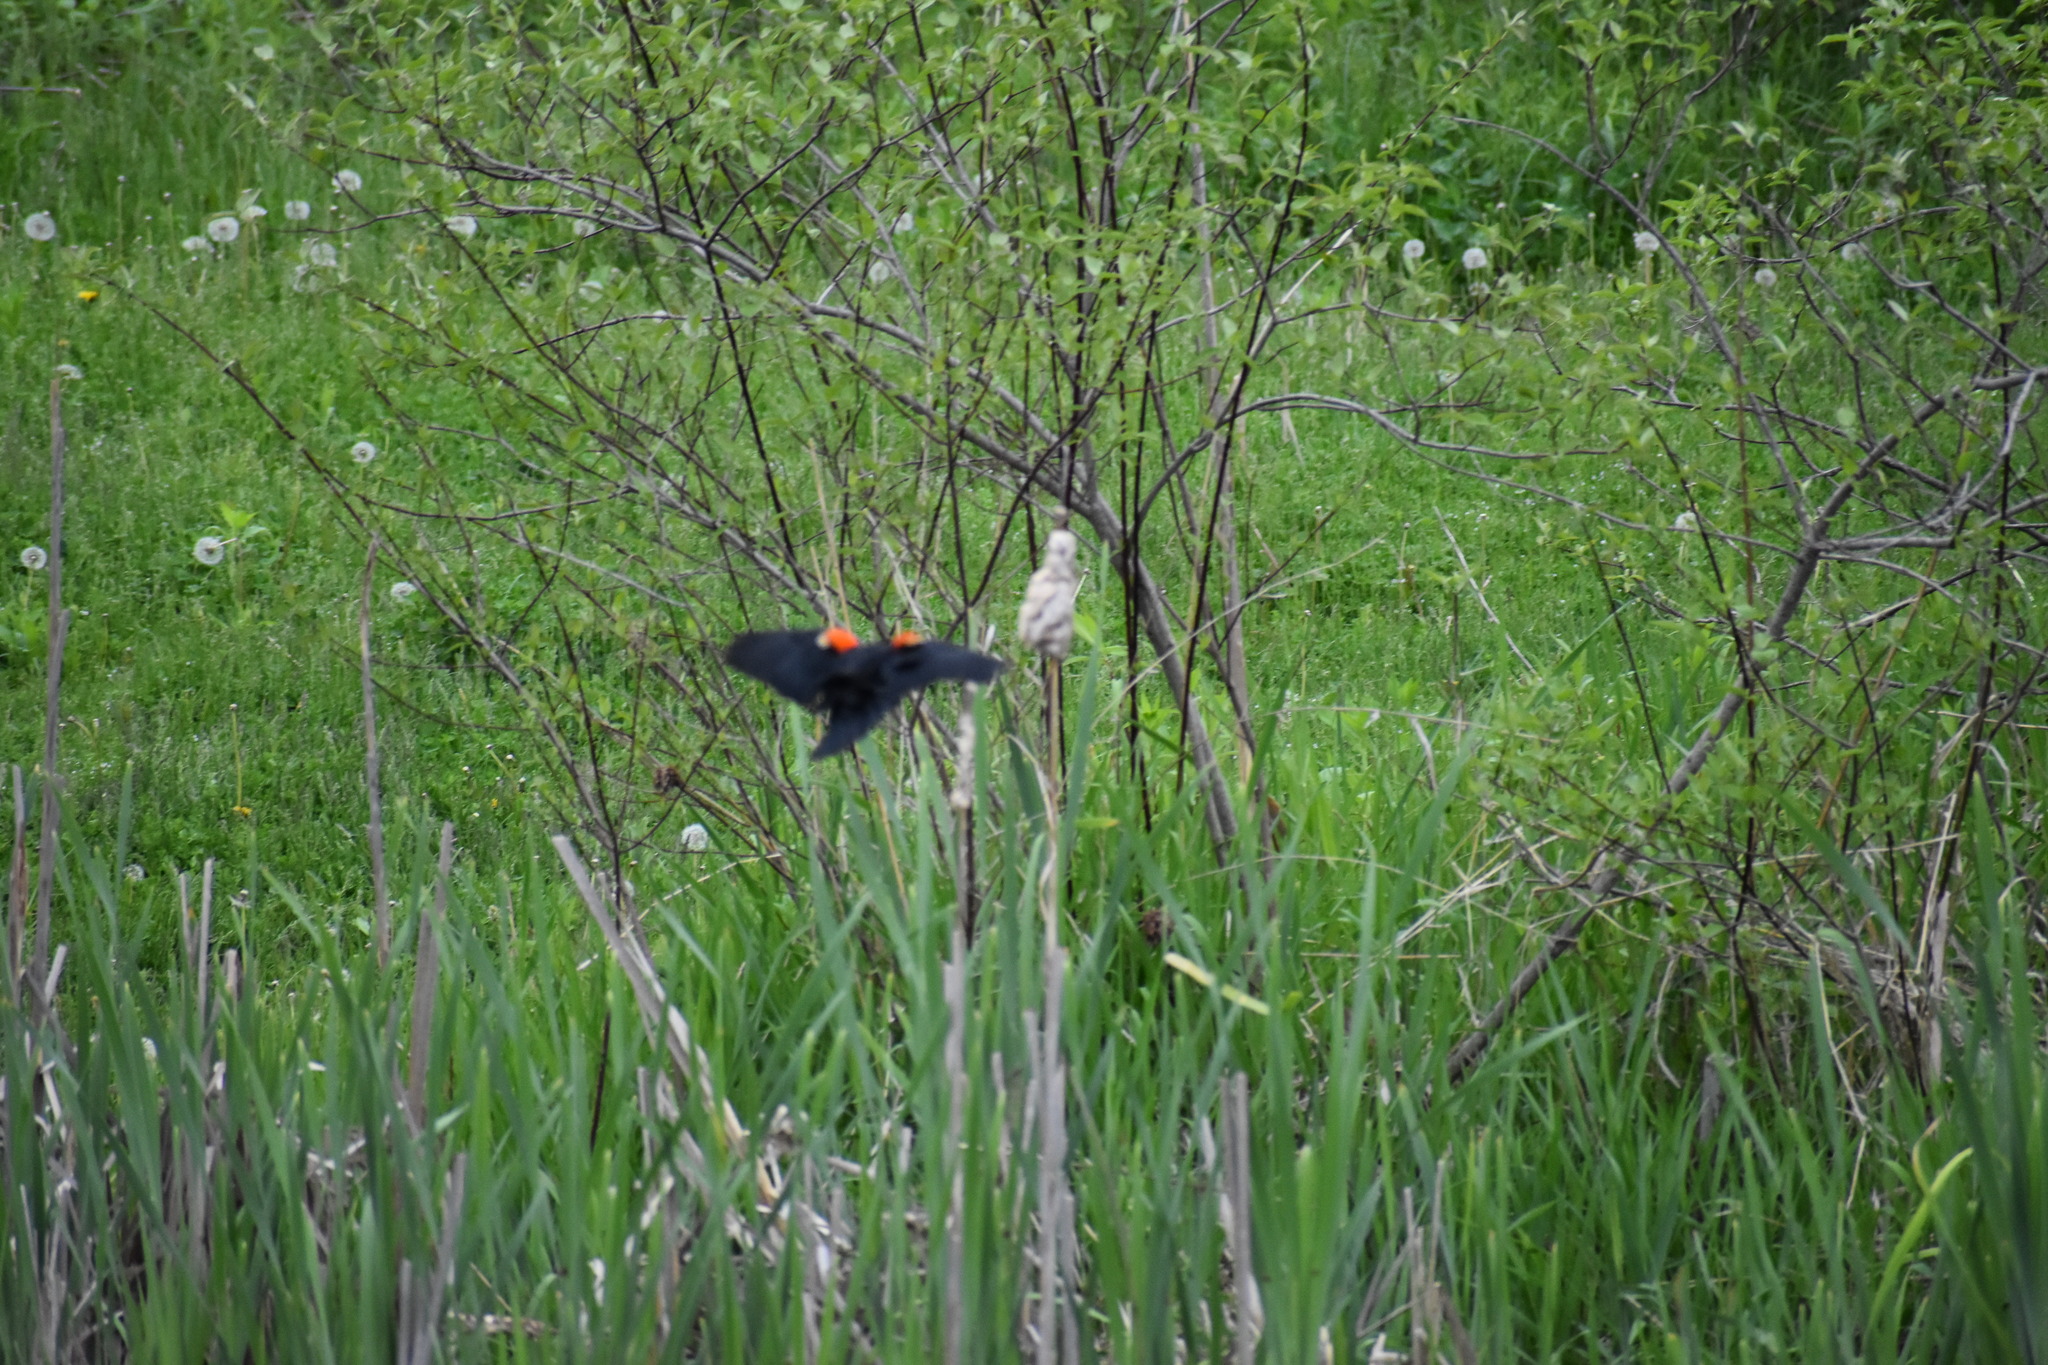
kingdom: Animalia
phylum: Chordata
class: Aves
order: Passeriformes
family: Icteridae
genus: Agelaius
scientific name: Agelaius phoeniceus
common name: Red-winged blackbird
